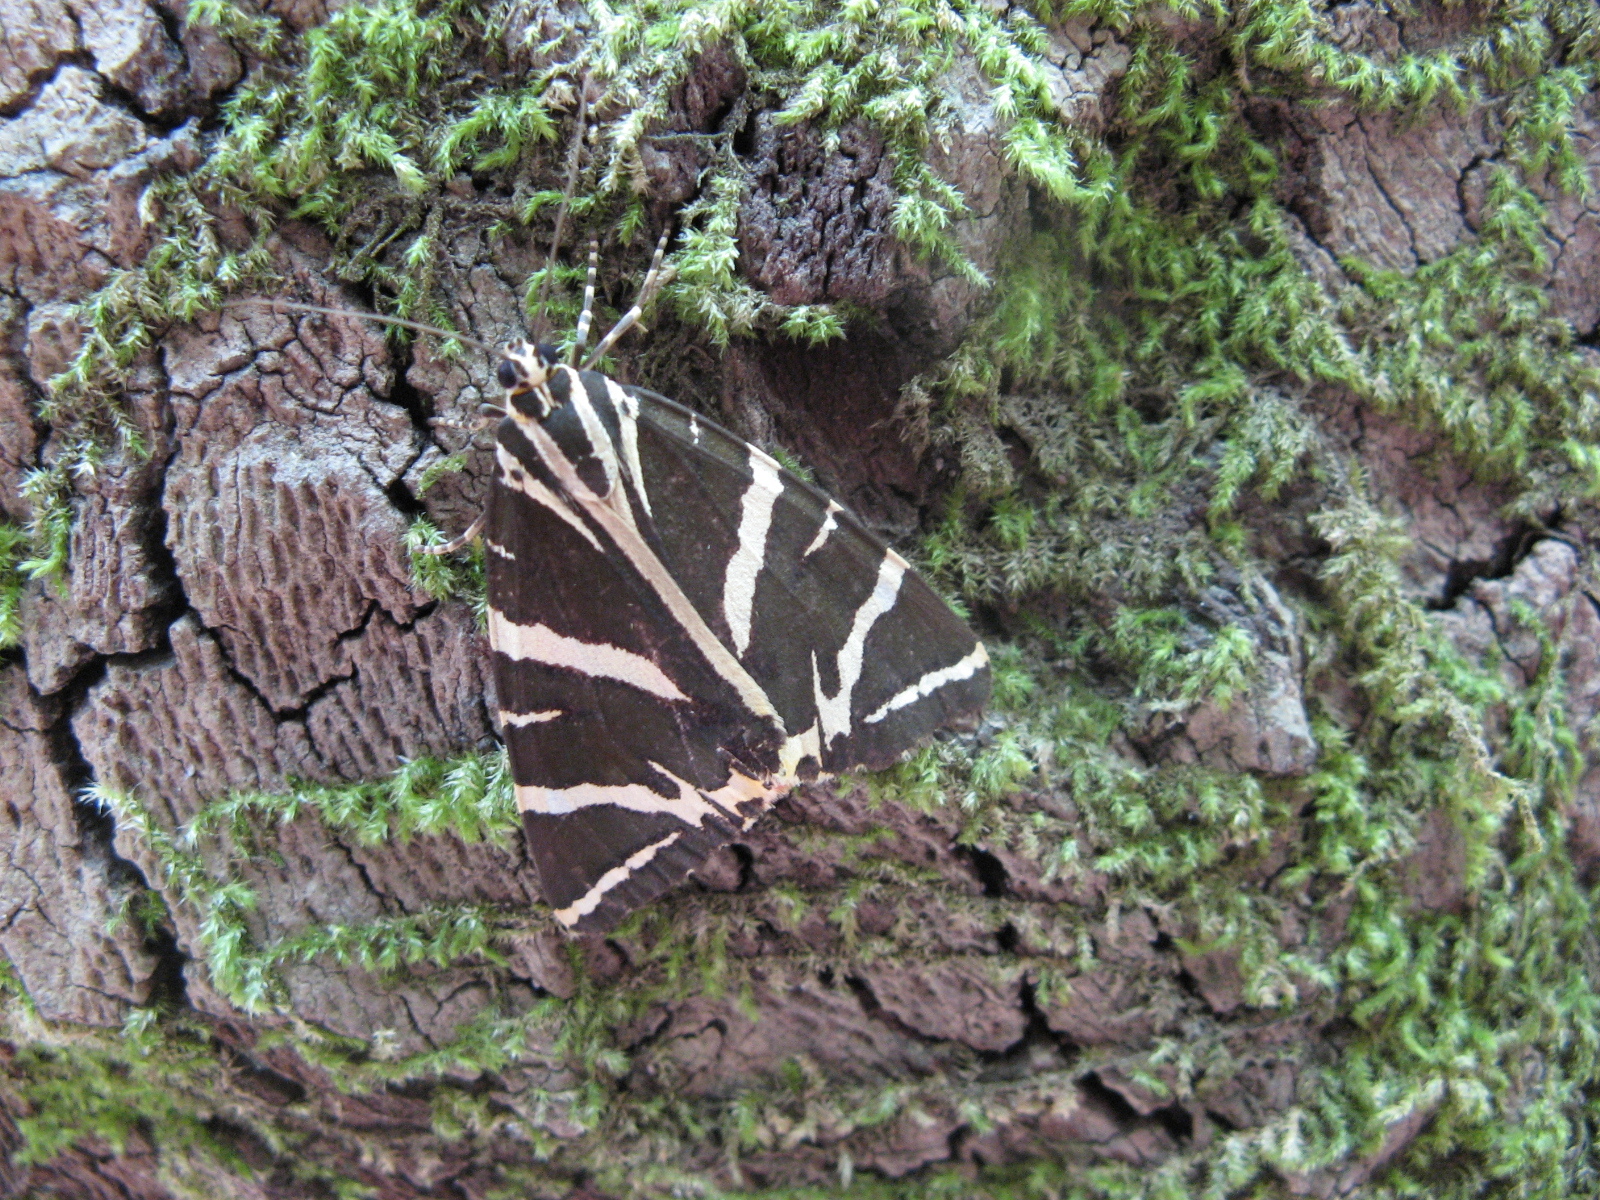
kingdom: Animalia
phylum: Arthropoda
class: Insecta
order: Lepidoptera
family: Erebidae
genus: Euplagia
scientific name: Euplagia quadripunctaria
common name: Jersey tiger
